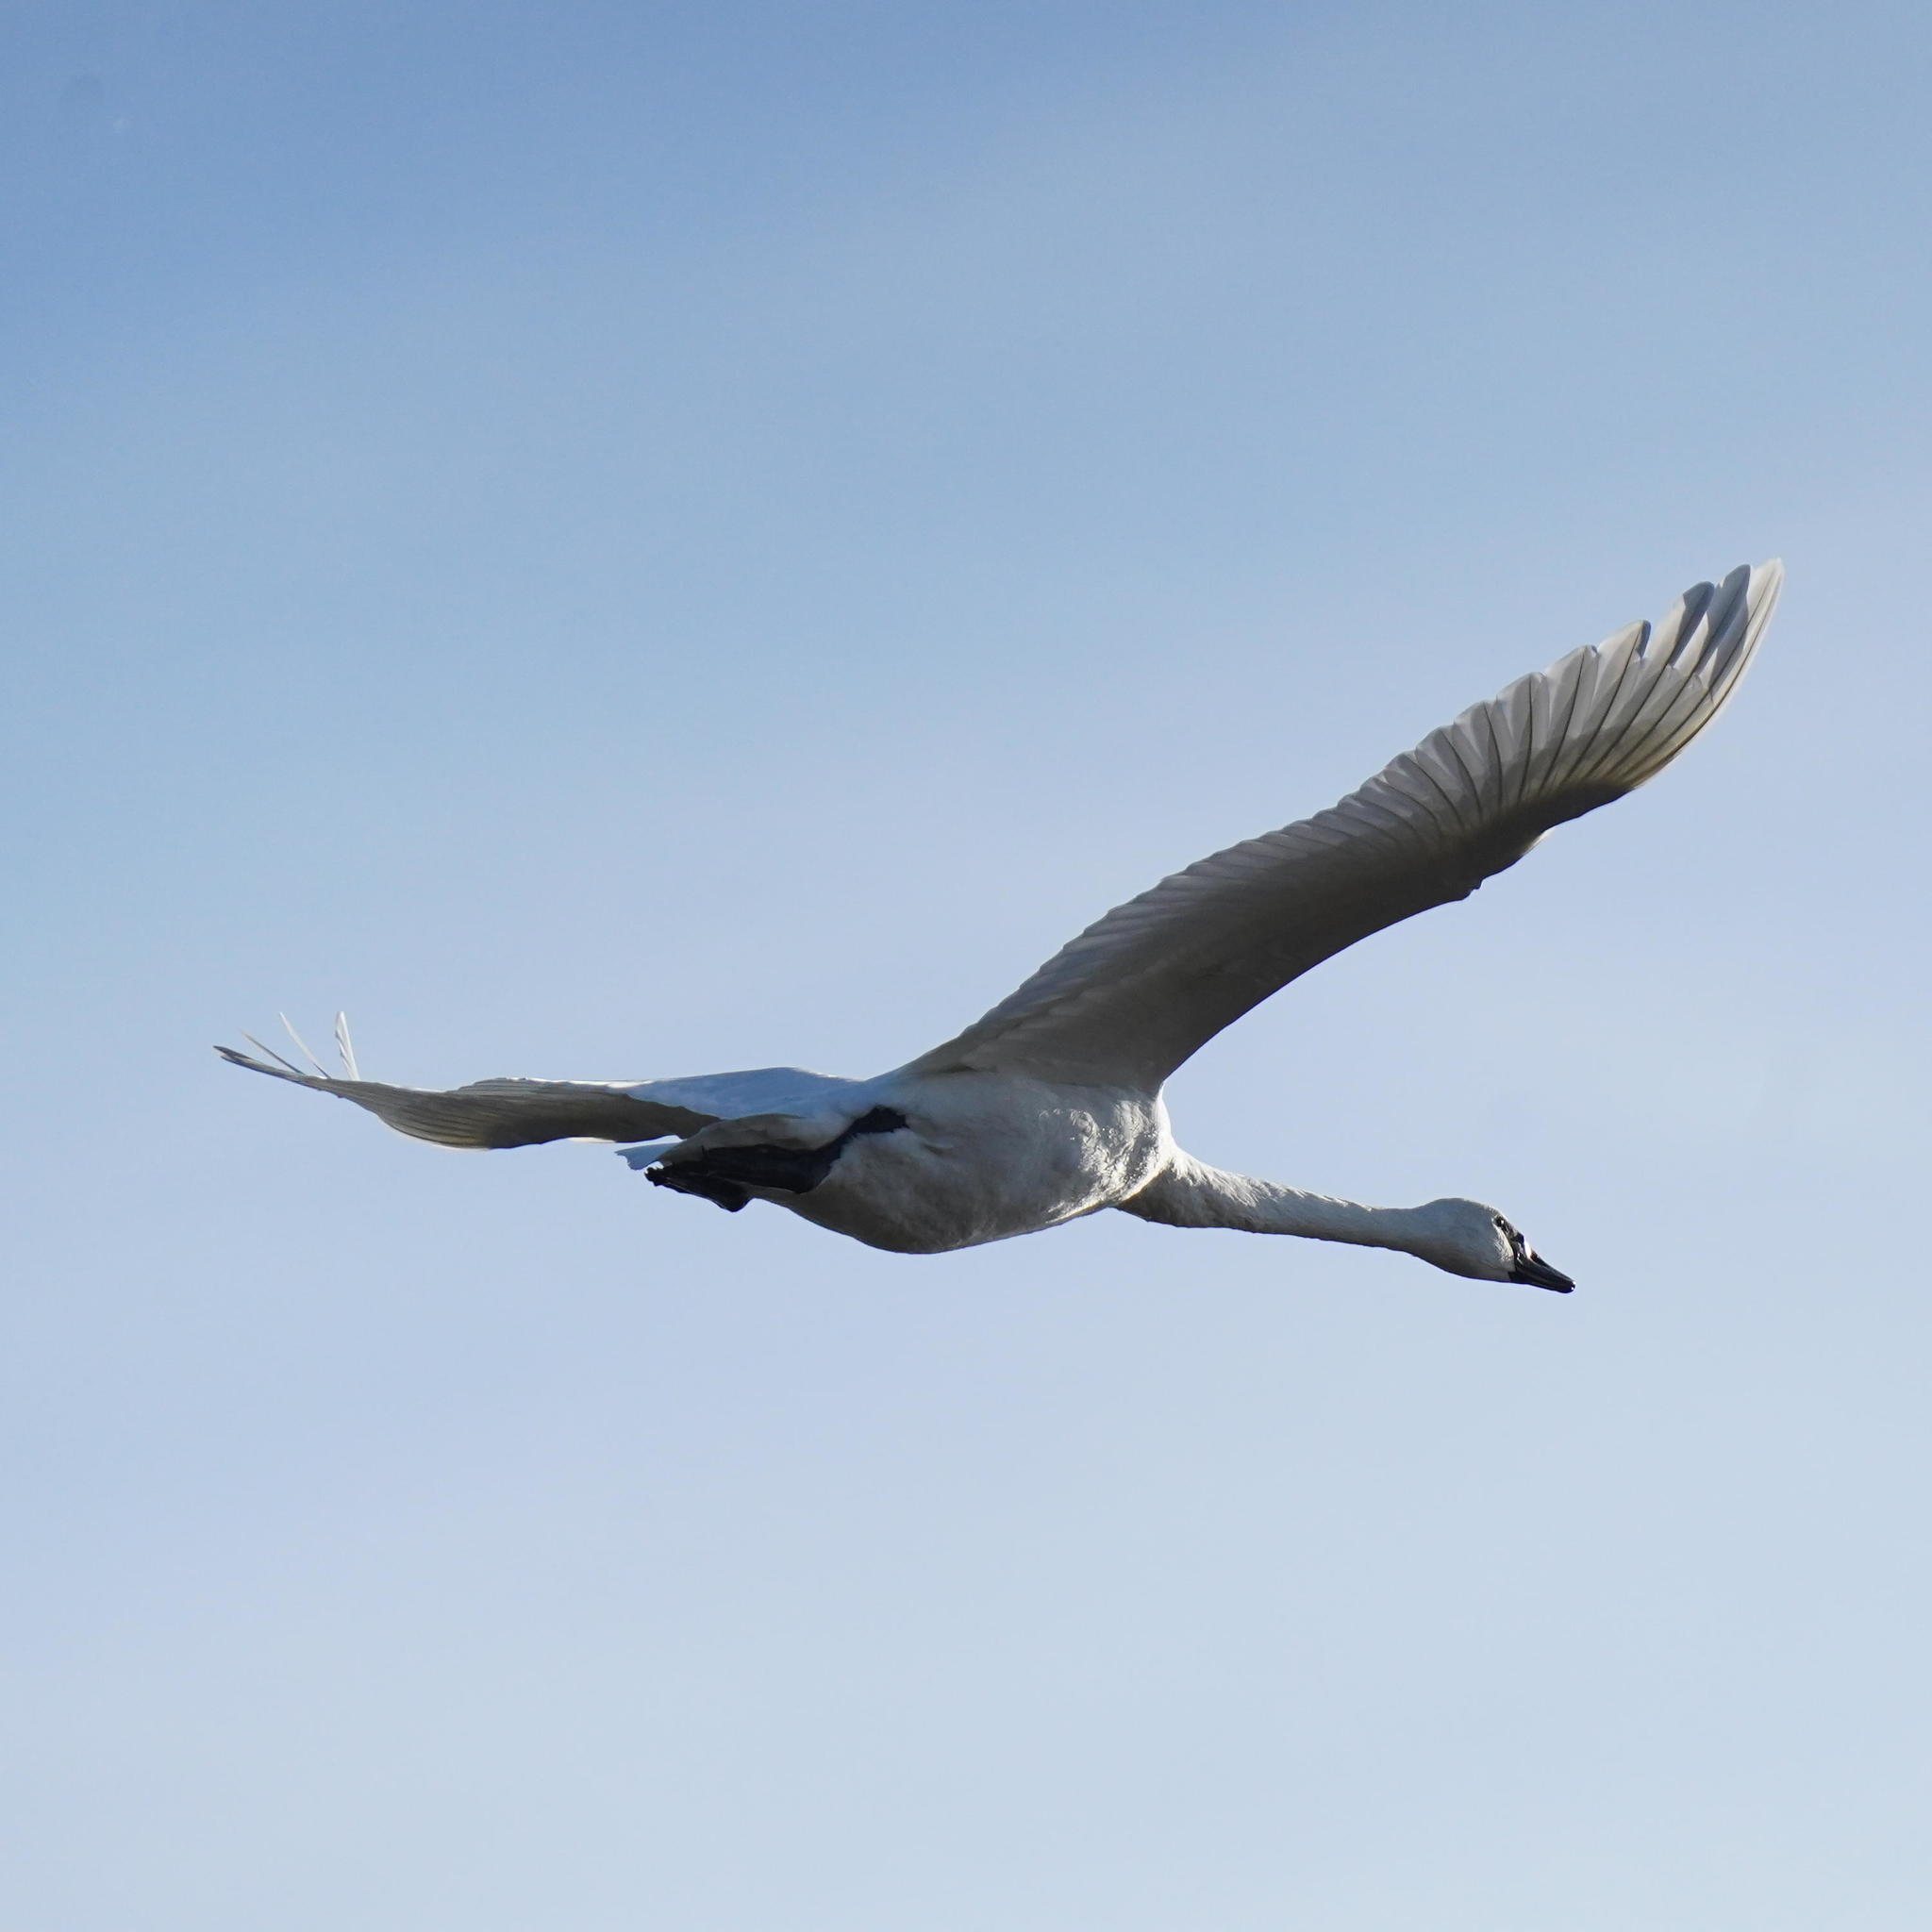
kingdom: Animalia
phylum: Chordata
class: Aves
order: Anseriformes
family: Anatidae
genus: Cygnus
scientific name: Cygnus buccinator
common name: Trumpeter swan
